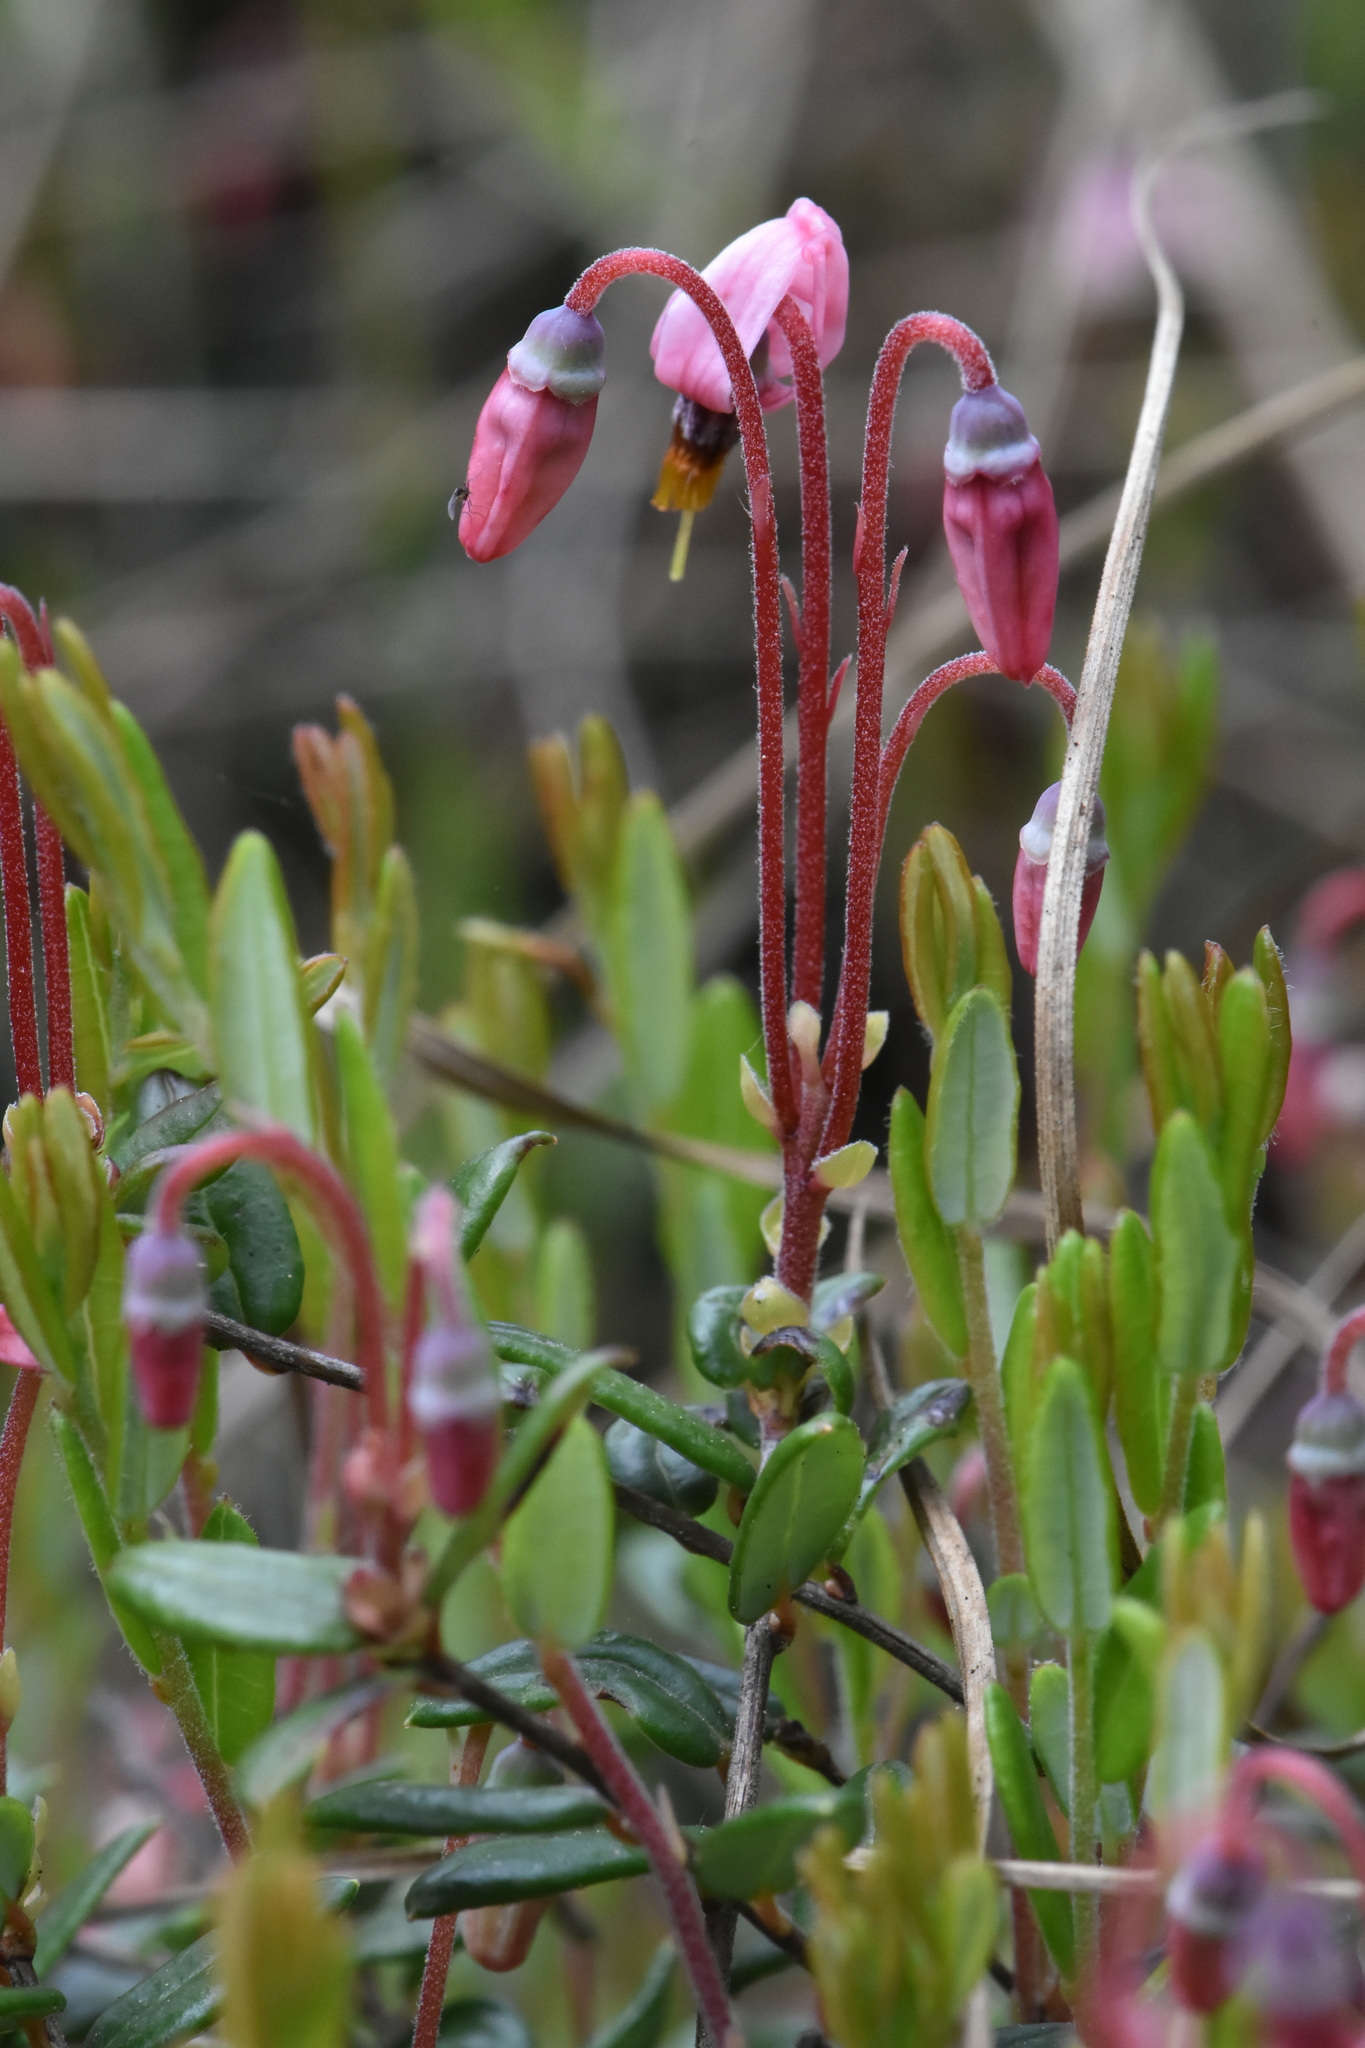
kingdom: Plantae
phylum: Tracheophyta
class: Magnoliopsida
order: Ericales
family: Ericaceae
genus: Vaccinium
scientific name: Vaccinium oxycoccos
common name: Cranberry
